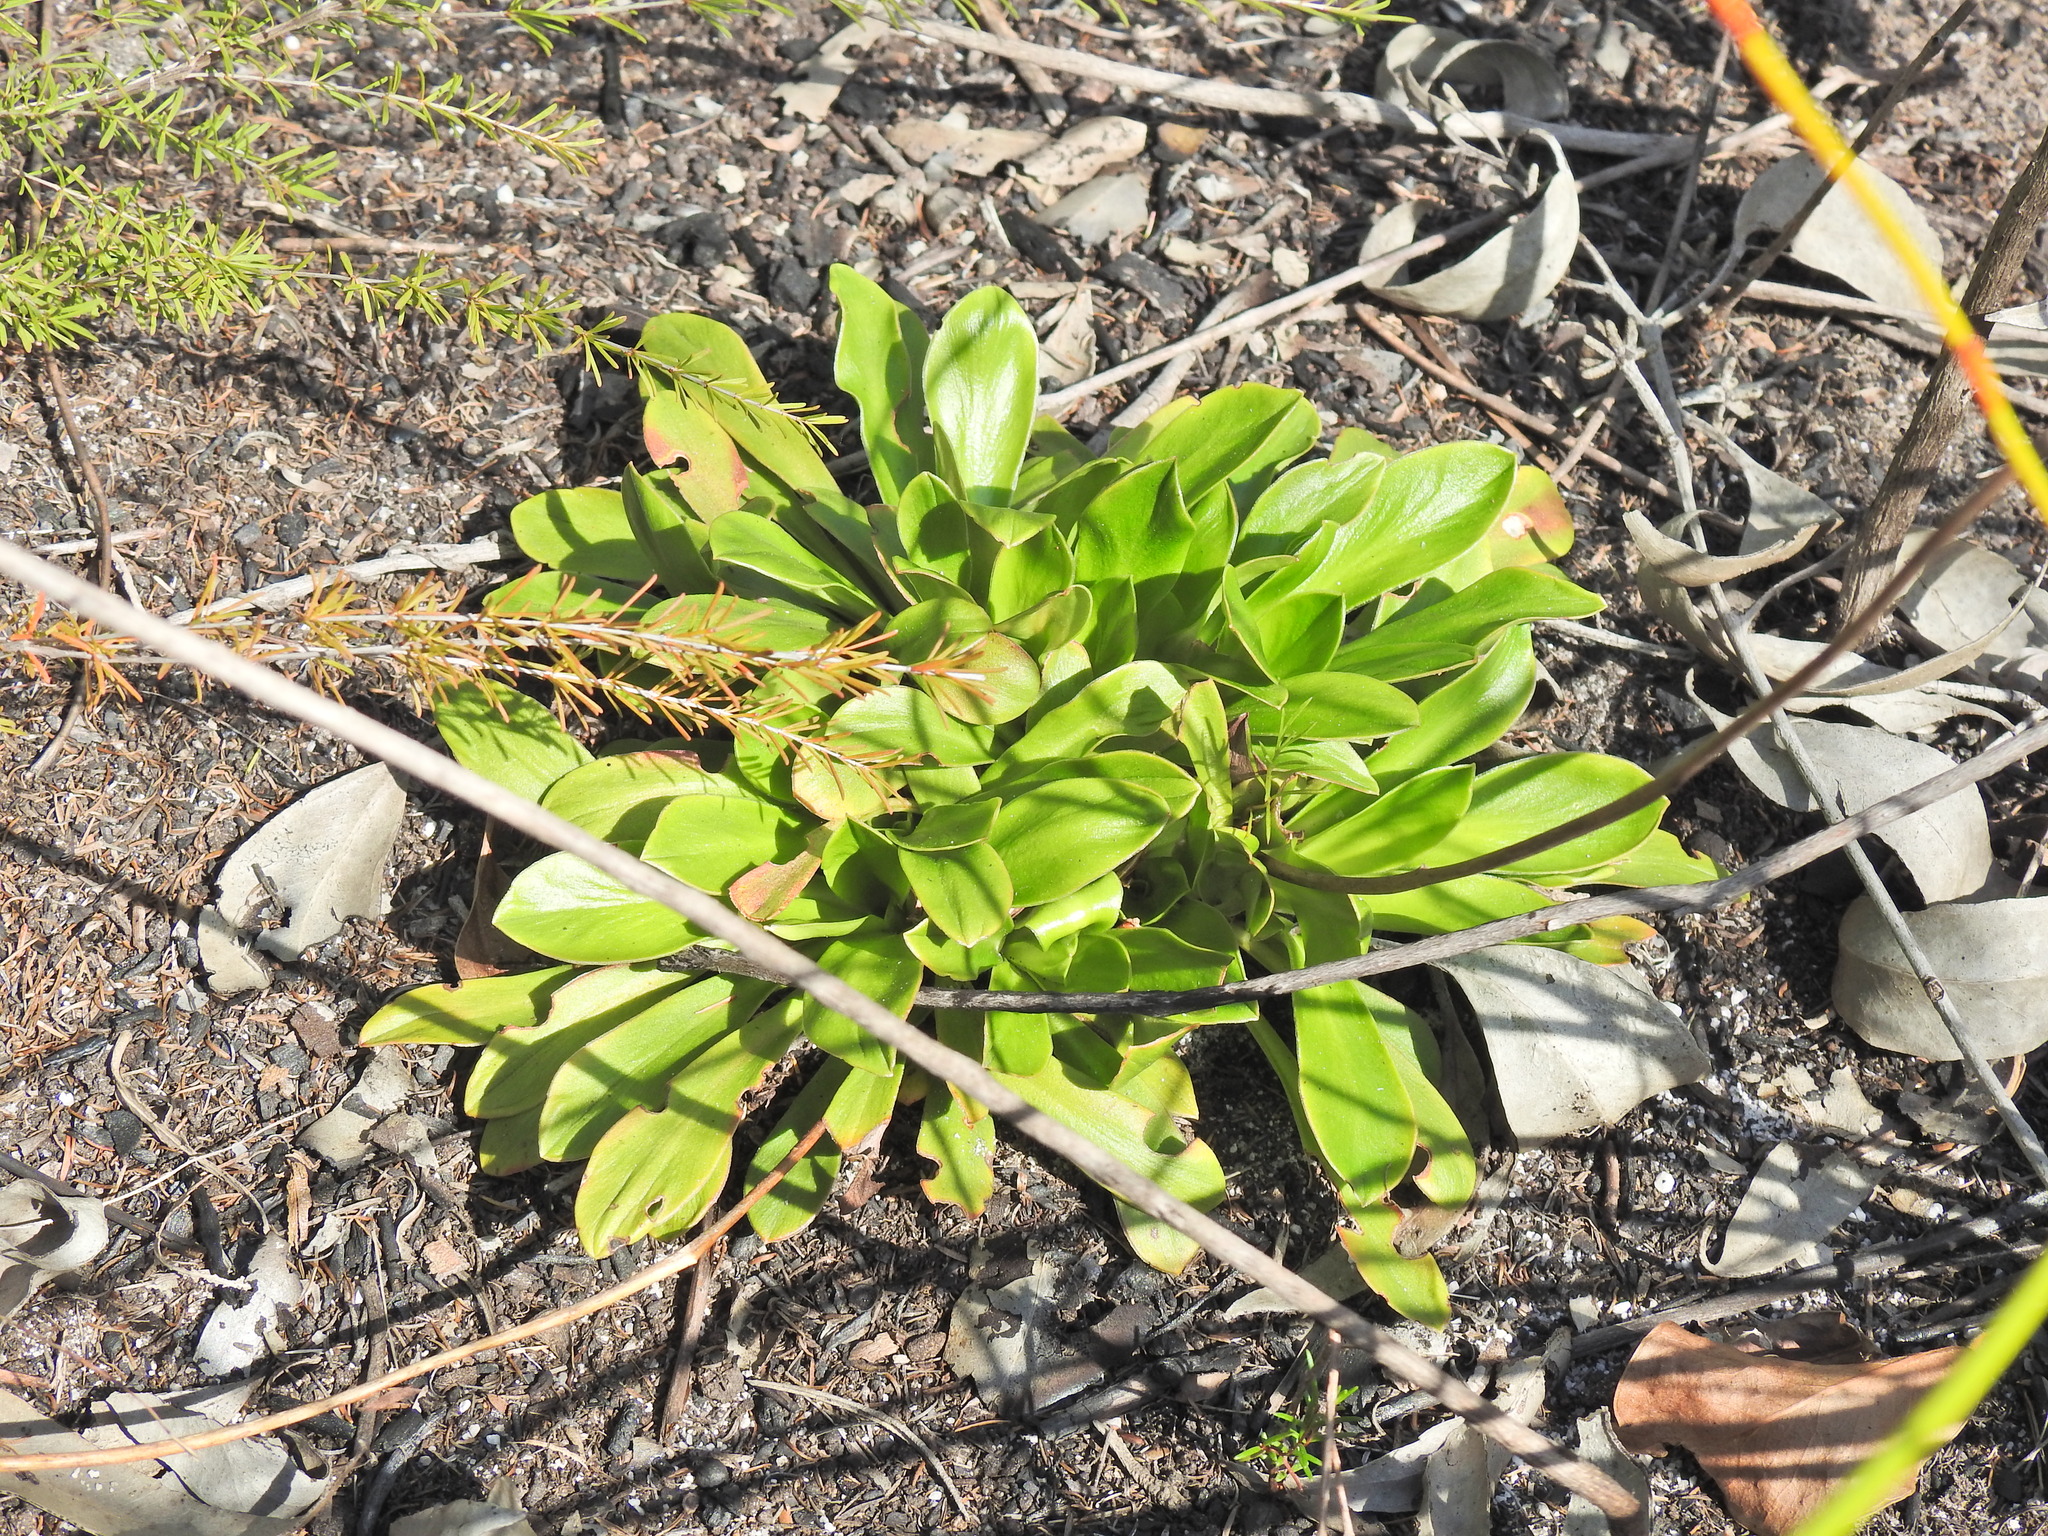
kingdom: Plantae
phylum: Tracheophyta
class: Magnoliopsida
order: Asterales
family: Stylidiaceae
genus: Stylidium
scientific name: Stylidium ornatum
